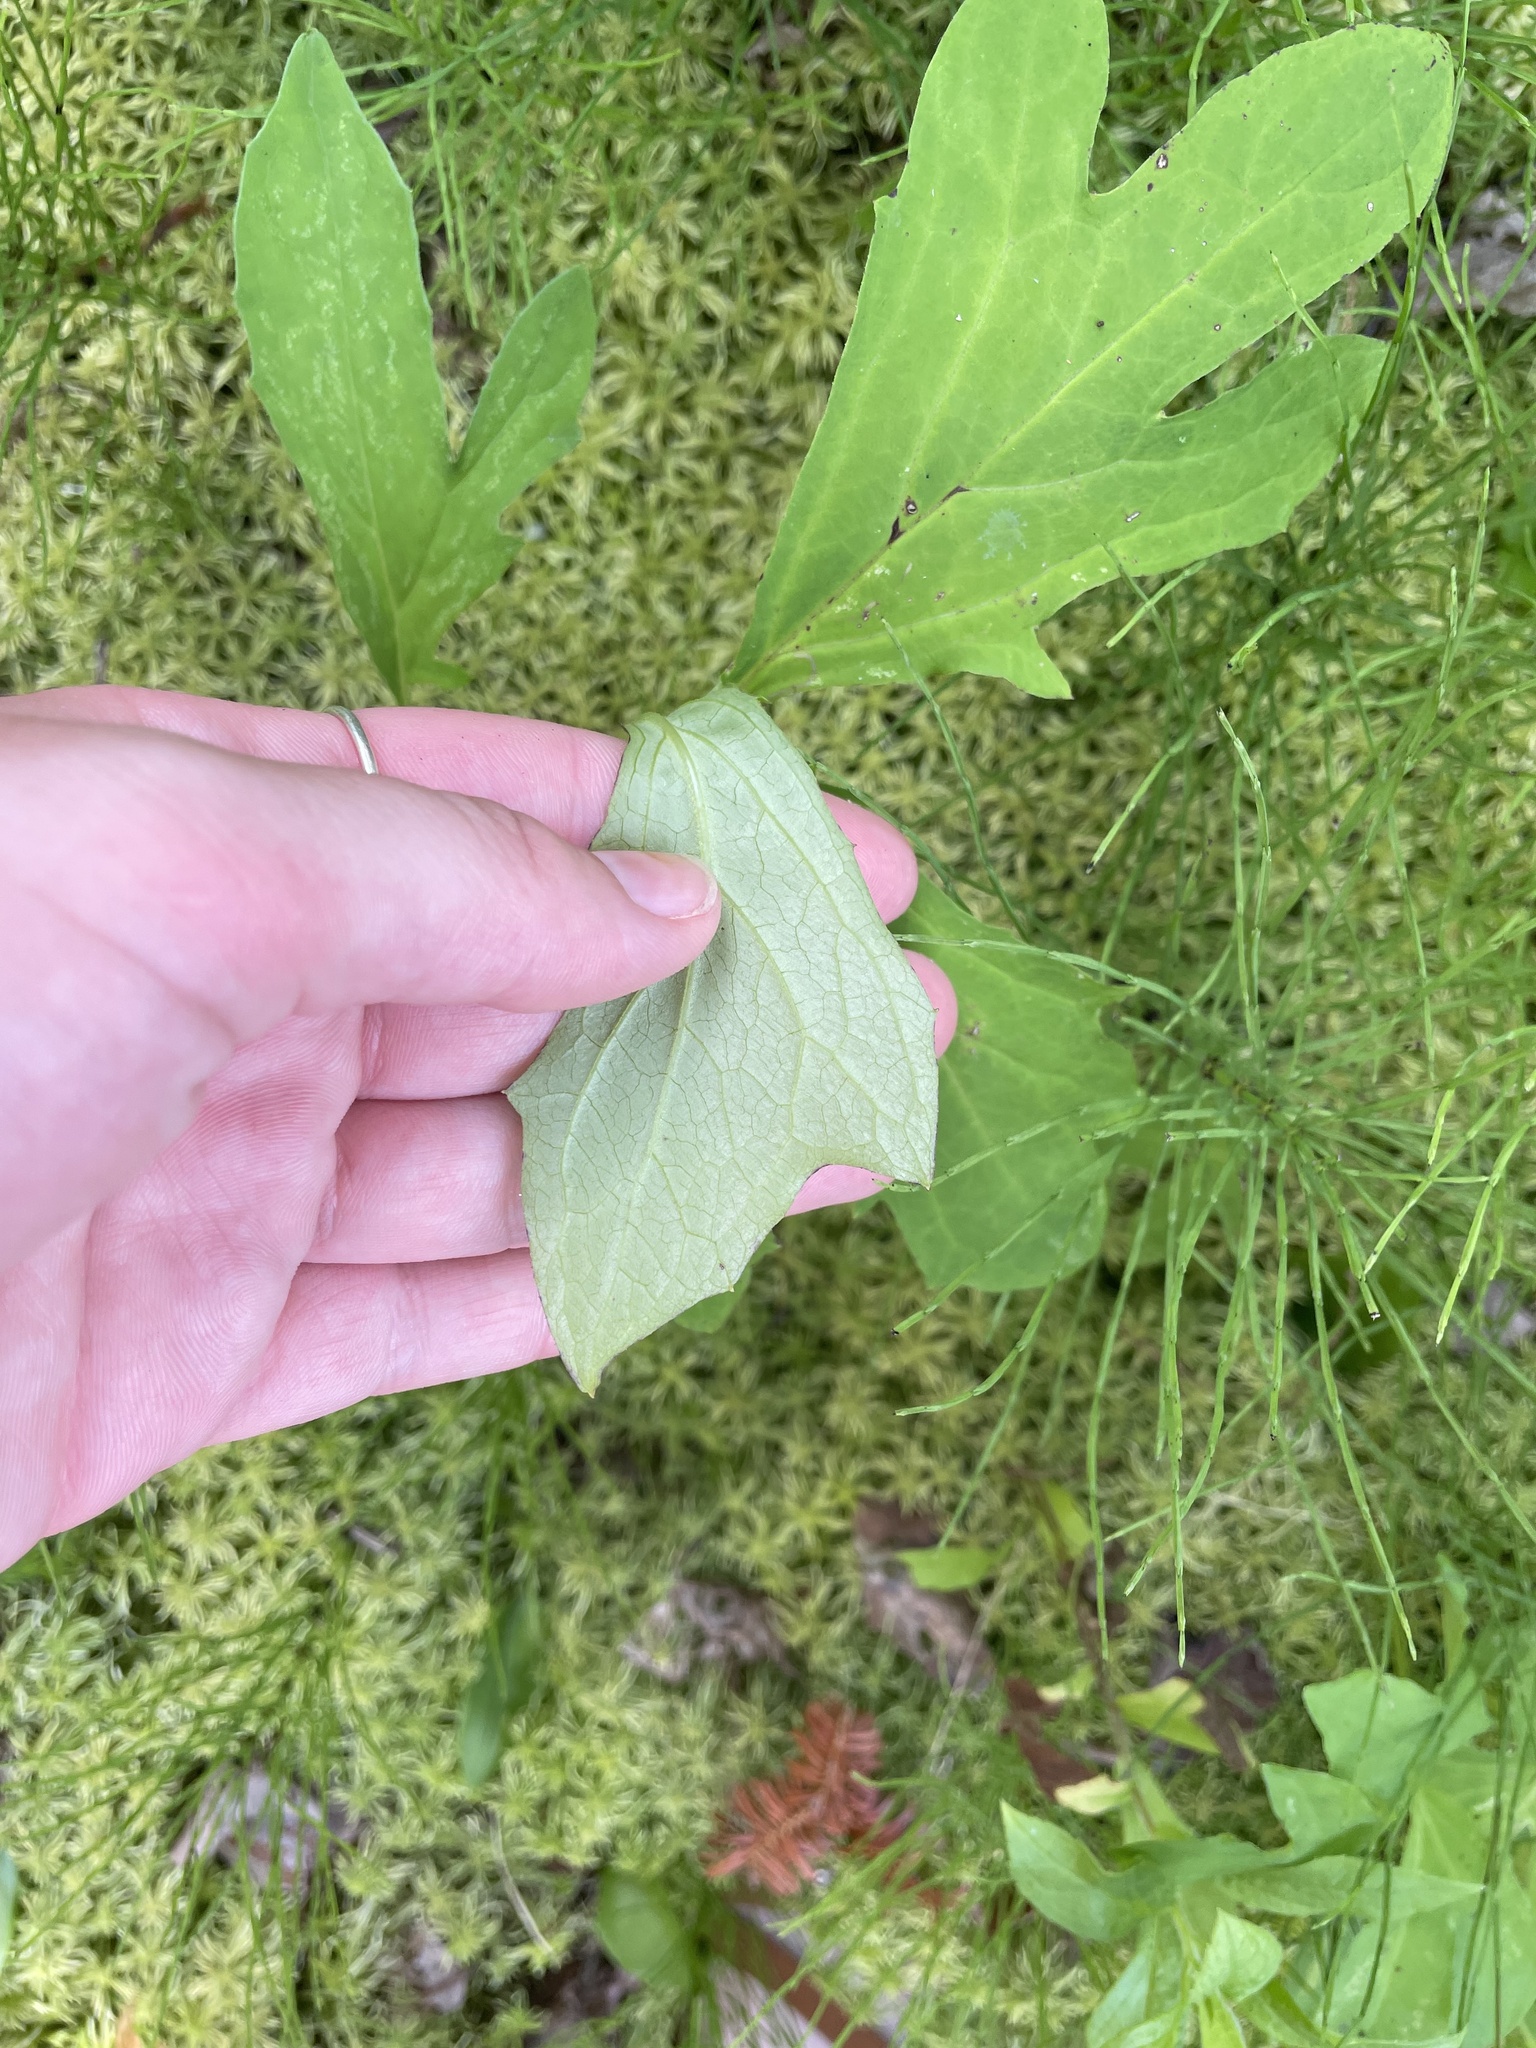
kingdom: Plantae
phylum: Tracheophyta
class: Magnoliopsida
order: Asterales
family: Asteraceae
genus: Nabalus
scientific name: Nabalus trifoliolatus
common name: Gall-of-the-earth
